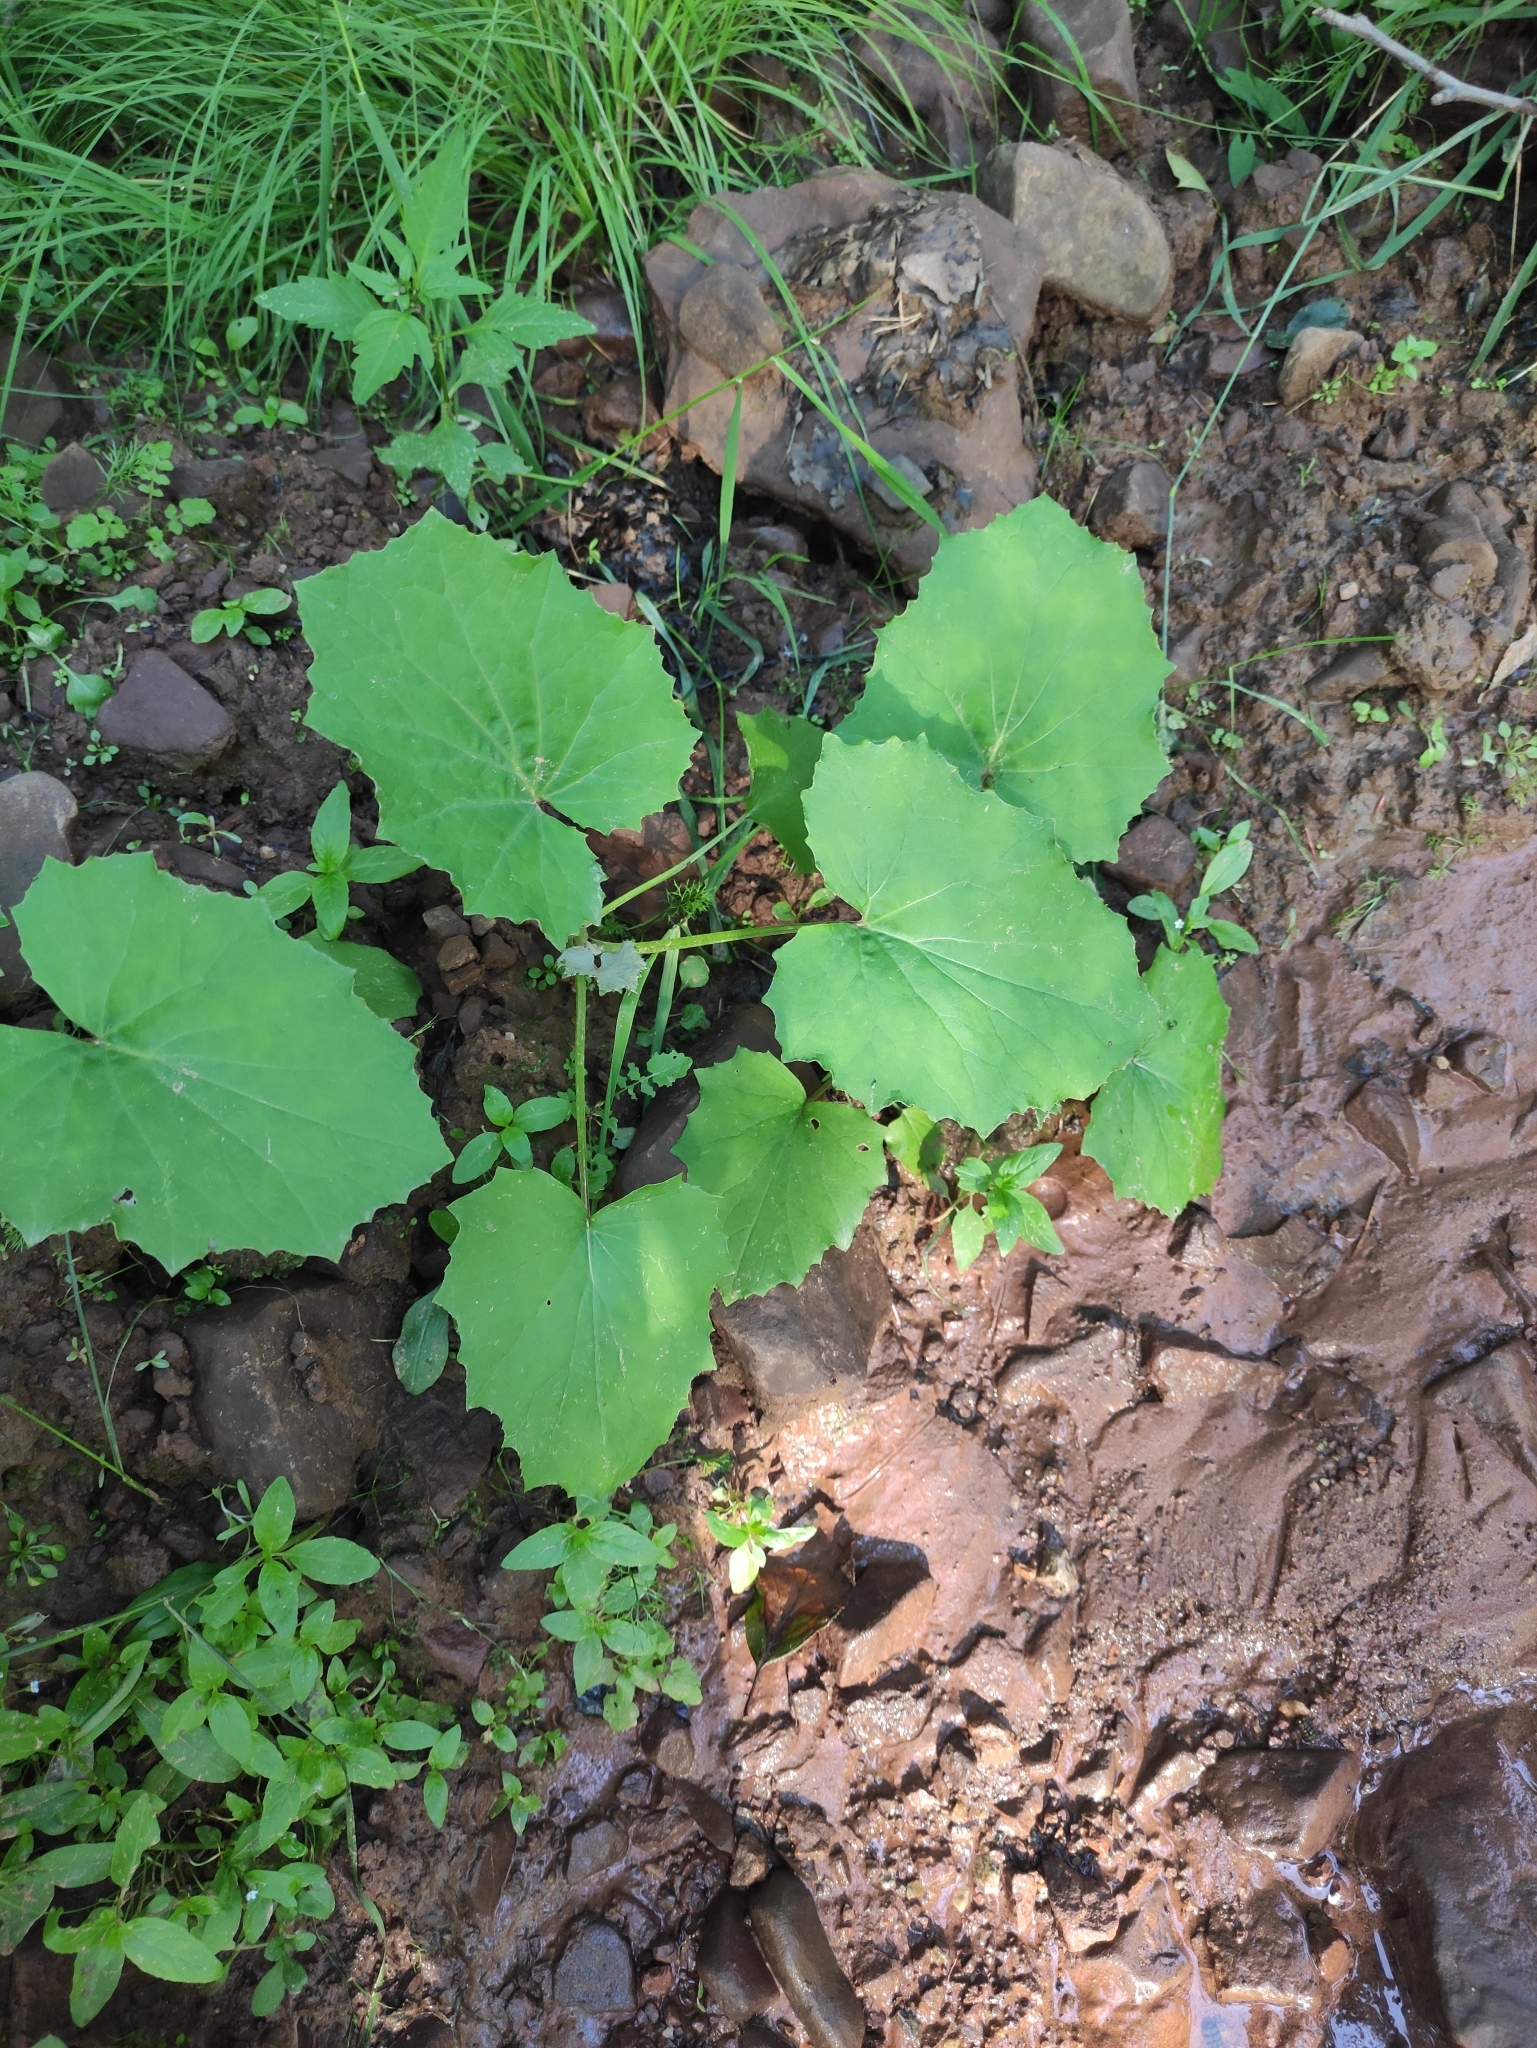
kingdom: Plantae
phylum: Tracheophyta
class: Magnoliopsida
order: Asterales
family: Asteraceae
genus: Tussilago
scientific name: Tussilago farfara
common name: Coltsfoot
